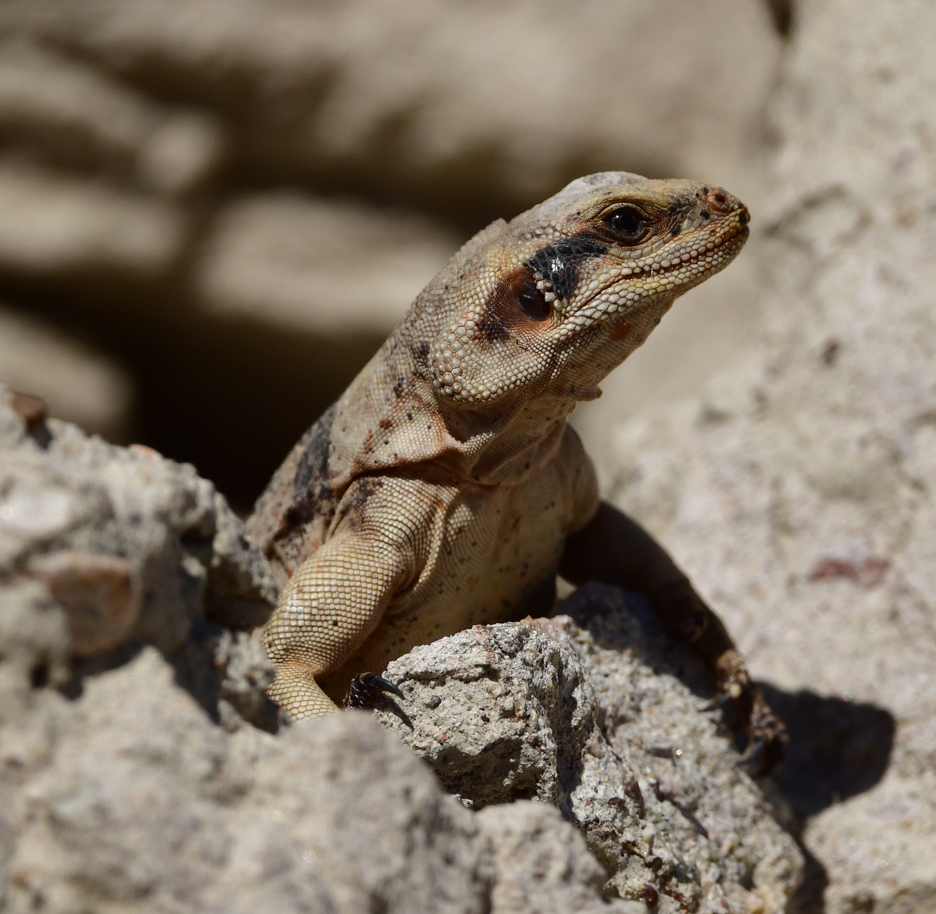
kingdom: Animalia
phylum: Chordata
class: Squamata
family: Iguanidae
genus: Sauromalus
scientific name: Sauromalus ater
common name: Northern chuckwalla
